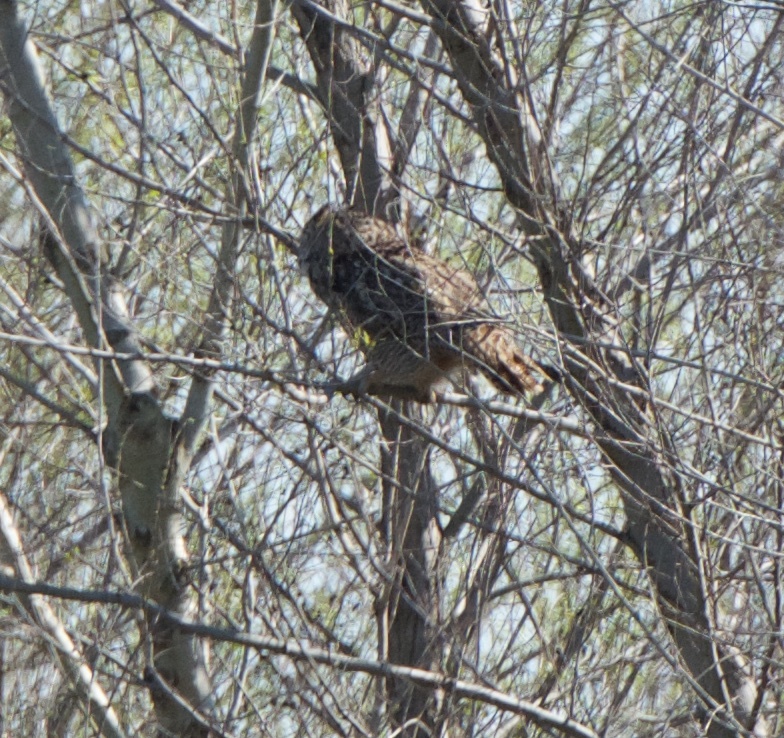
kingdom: Animalia
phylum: Chordata
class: Aves
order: Strigiformes
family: Strigidae
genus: Bubo
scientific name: Bubo virginianus
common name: Great horned owl
